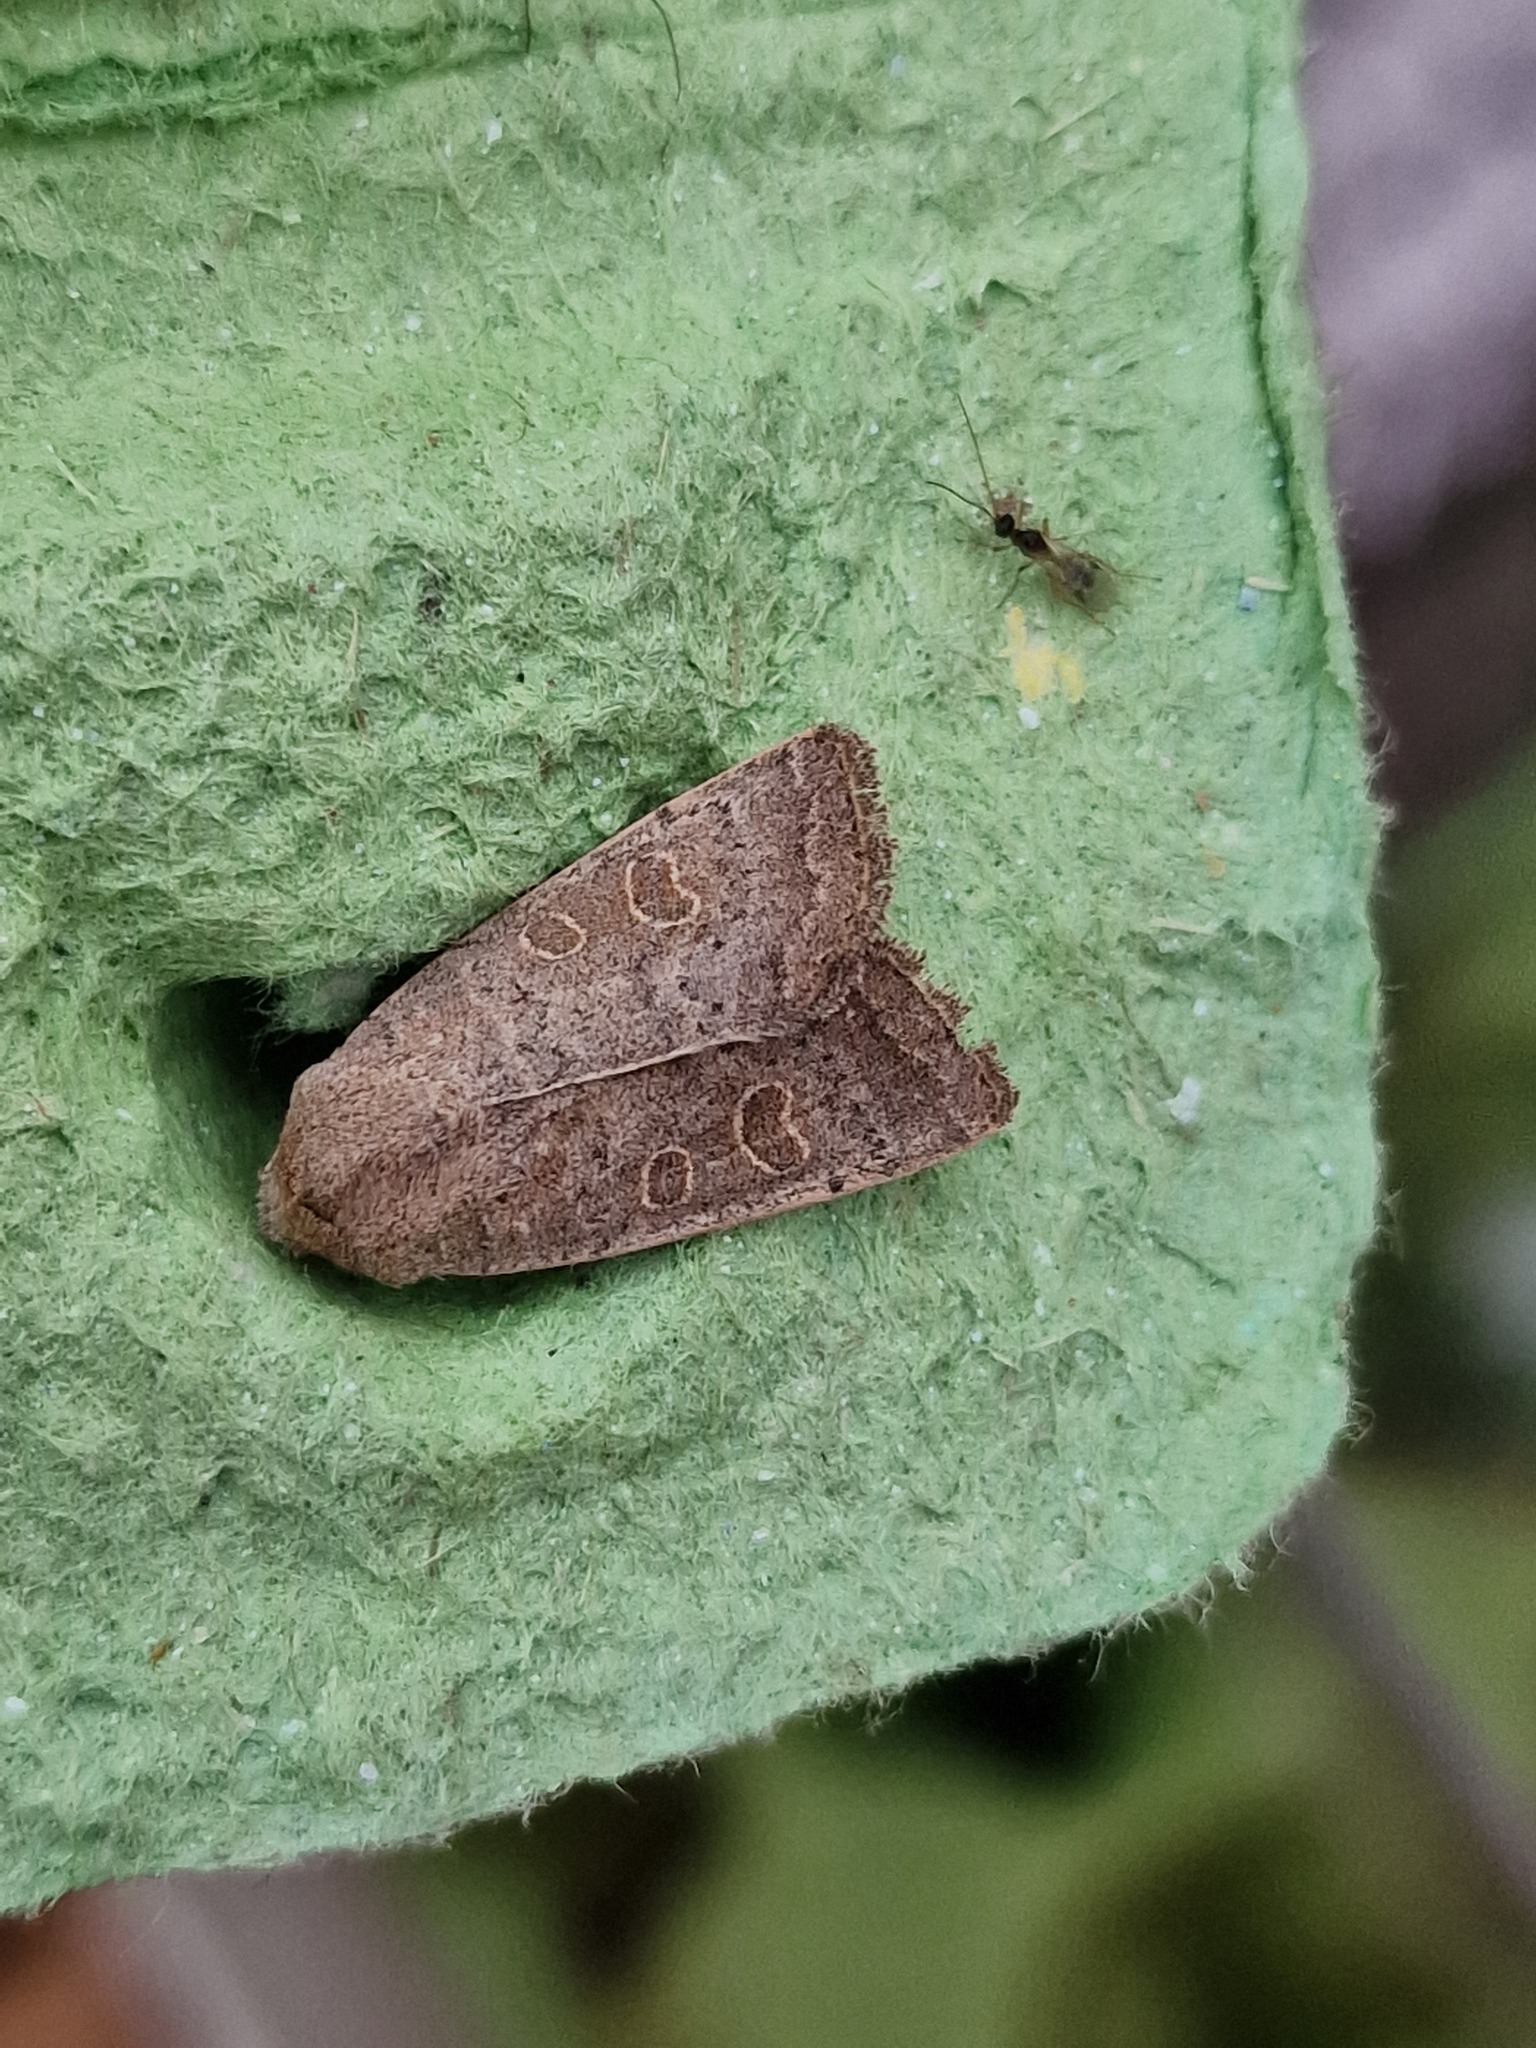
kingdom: Animalia
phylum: Arthropoda
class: Insecta
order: Lepidoptera
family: Noctuidae
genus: Hoplodrina
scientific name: Hoplodrina ambigua
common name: Vine's rustic
